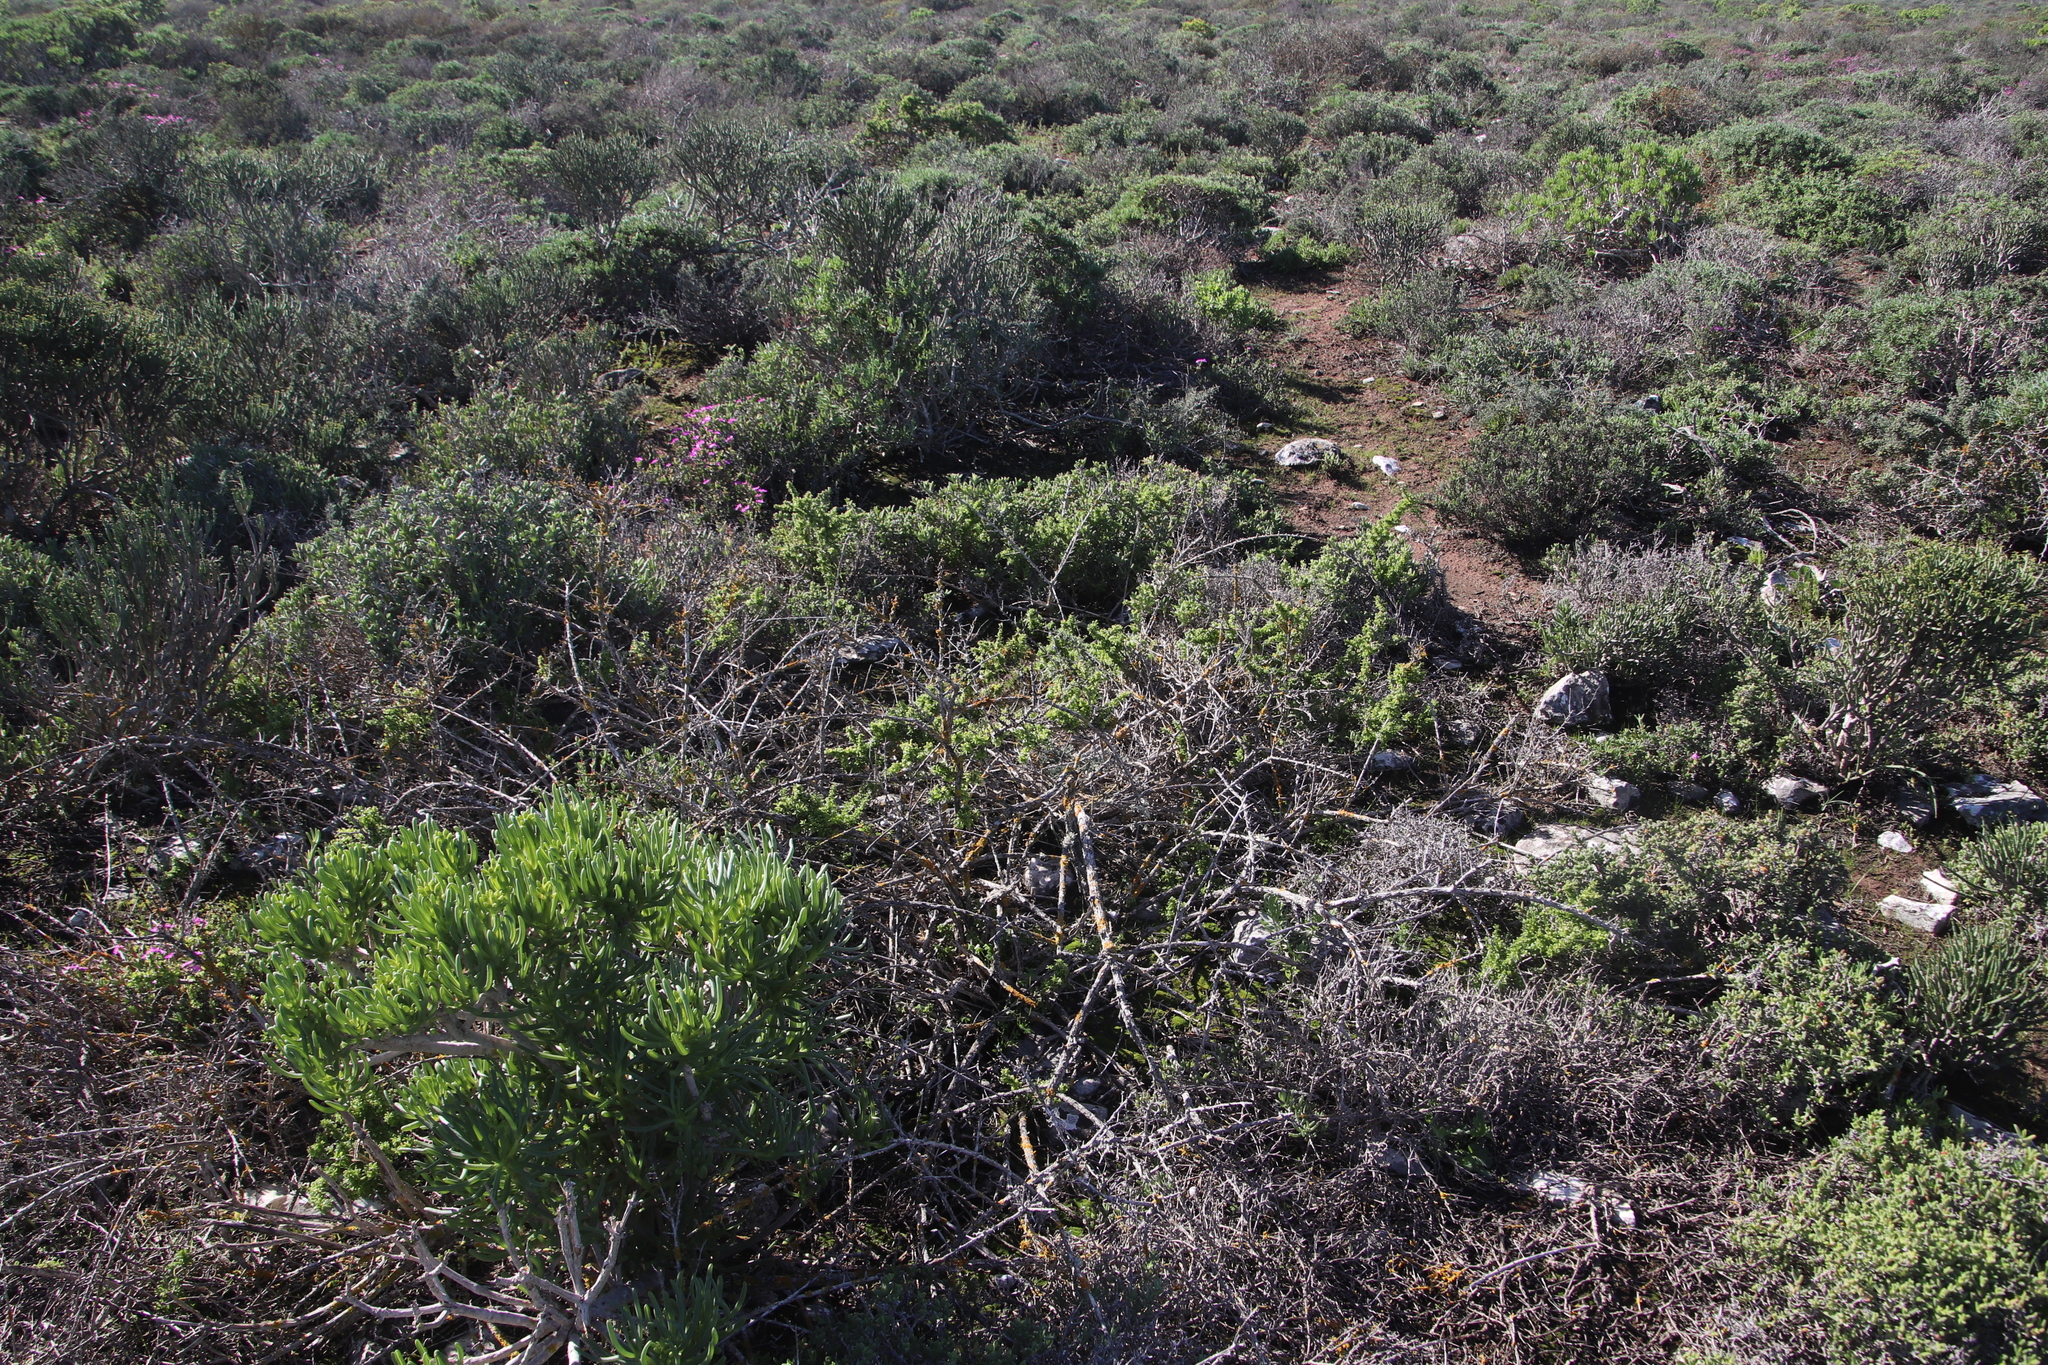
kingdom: Plantae
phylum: Tracheophyta
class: Magnoliopsida
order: Solanales
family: Solanaceae
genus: Lycium
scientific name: Lycium tetrandrum
